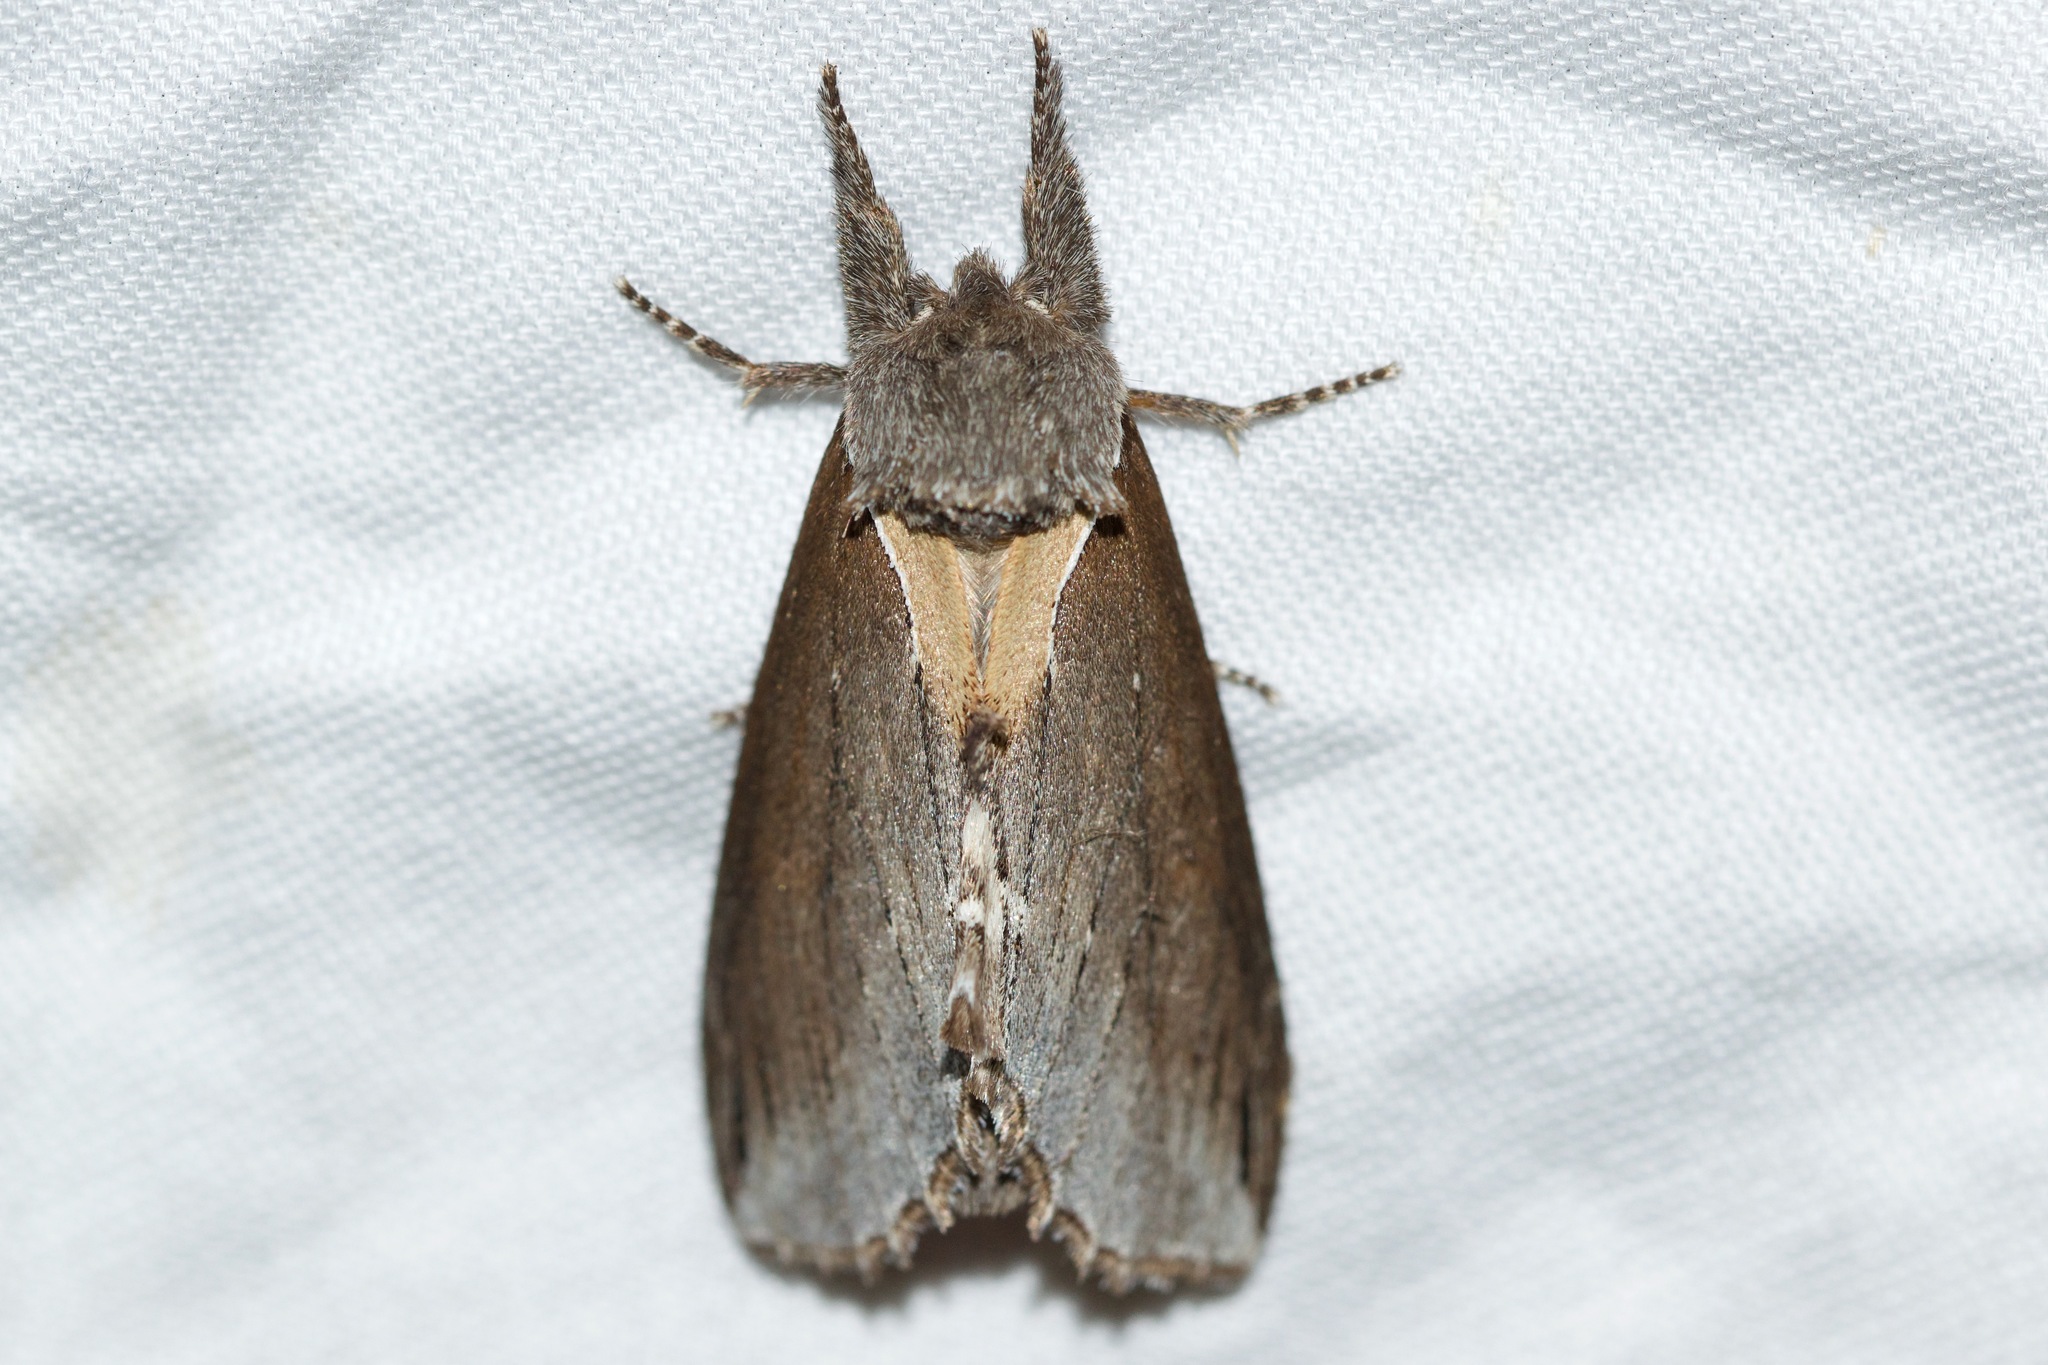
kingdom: Animalia
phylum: Arthropoda
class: Insecta
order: Lepidoptera
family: Notodontidae
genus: Pheosidea
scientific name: Pheosidea elegans
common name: Elegant prominent
